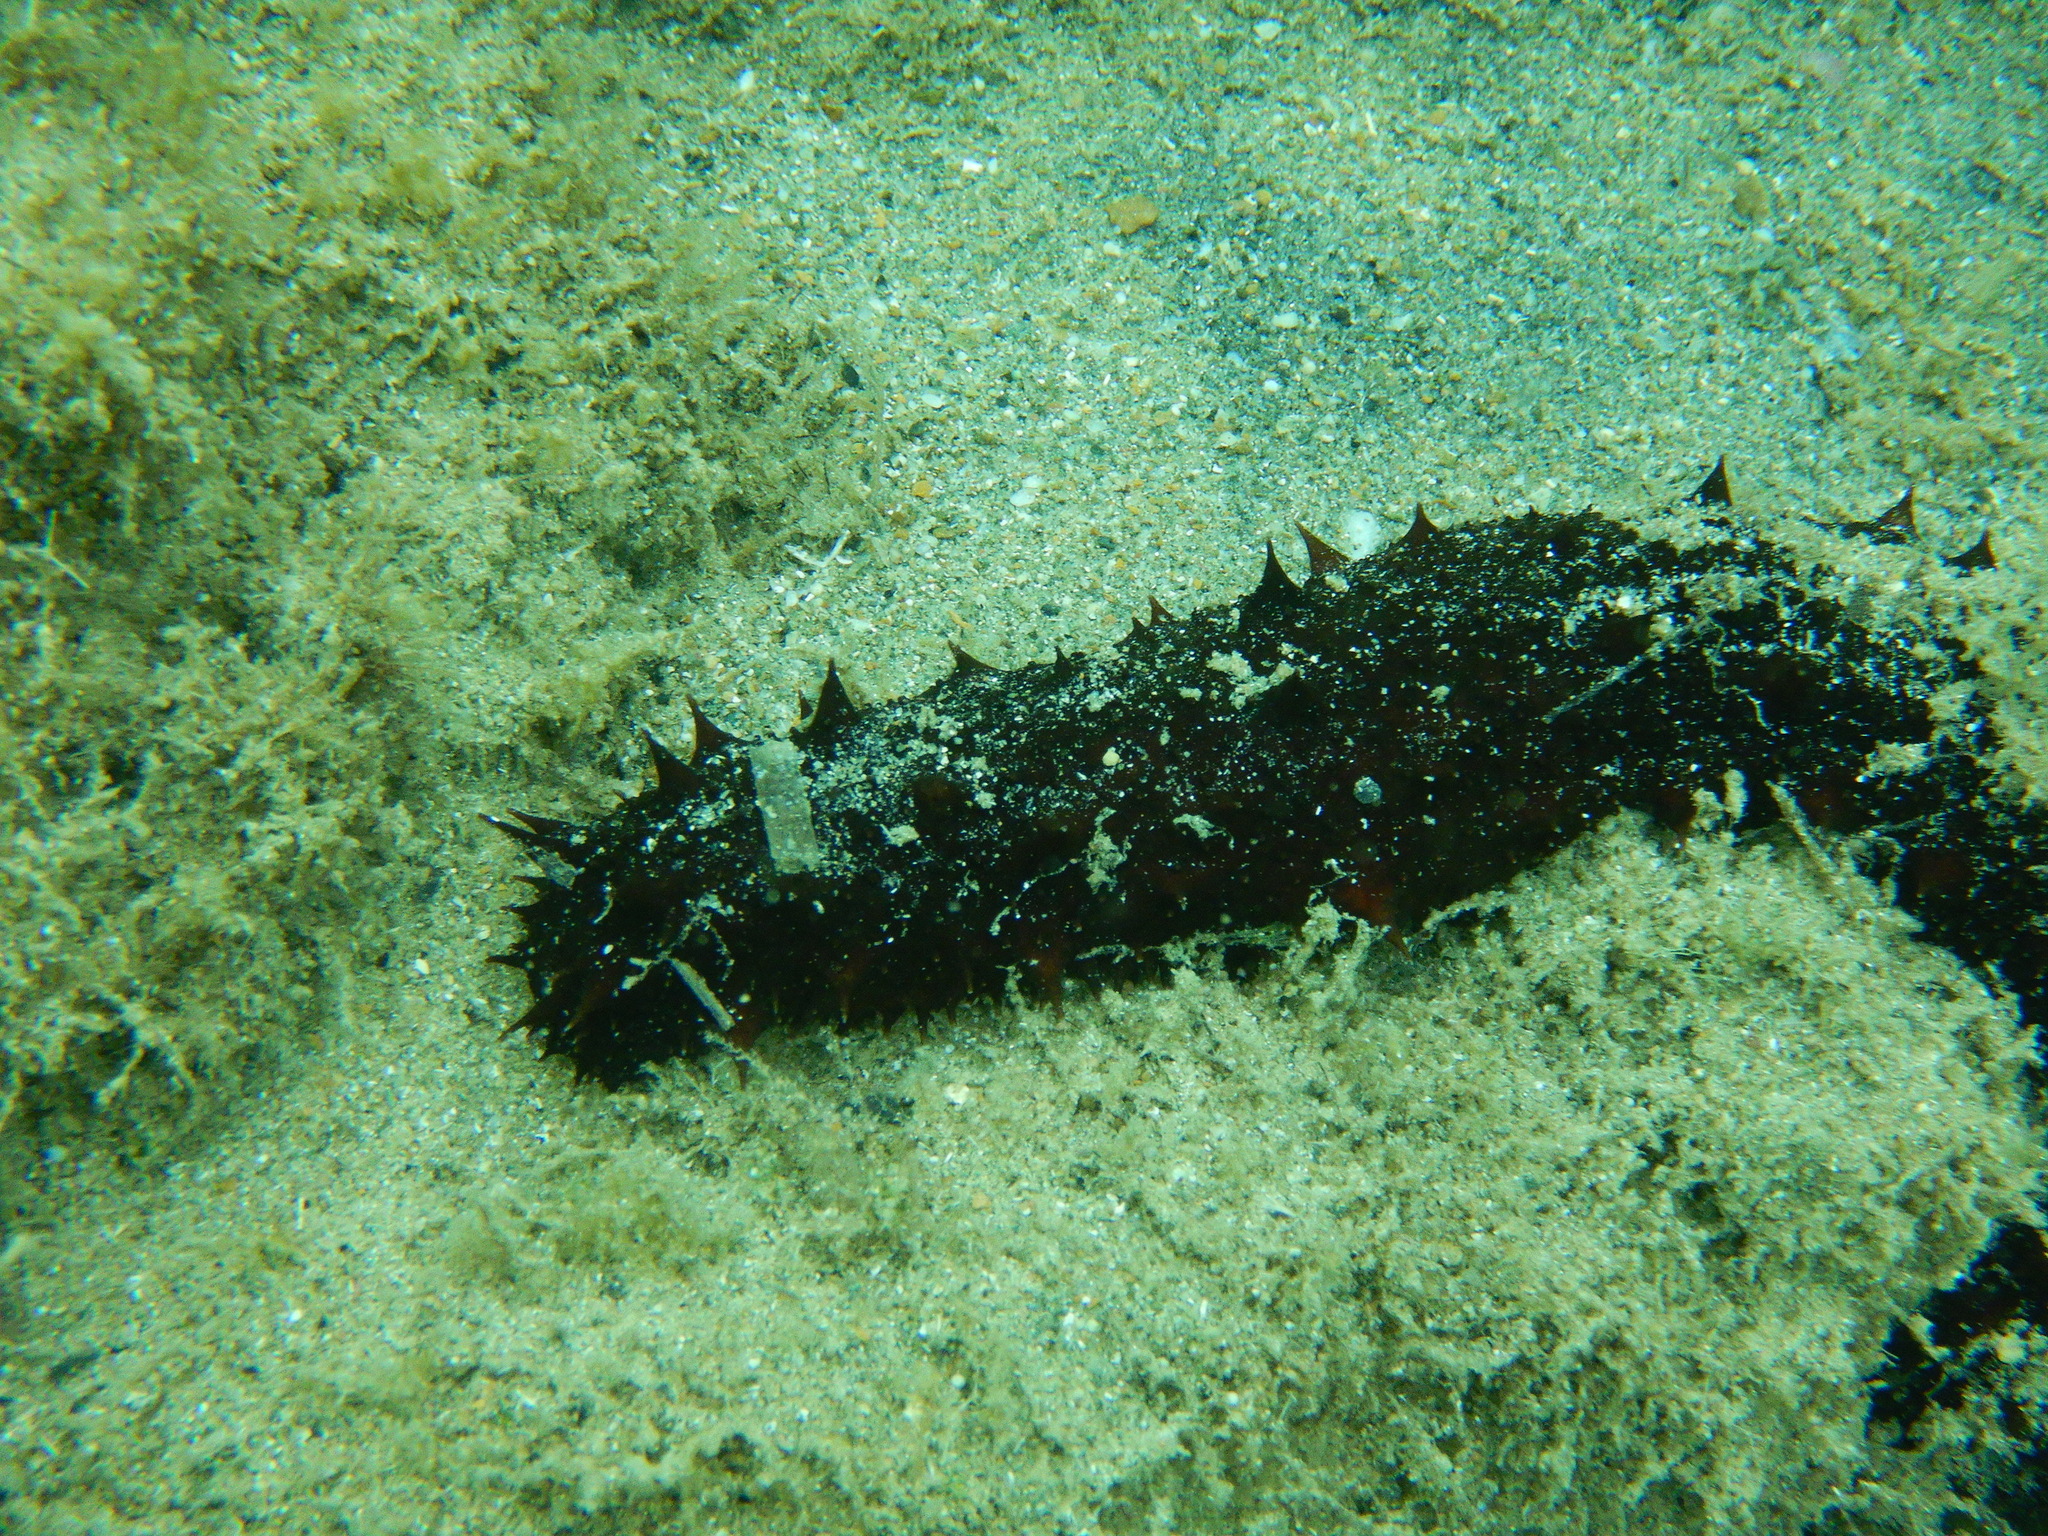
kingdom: Animalia
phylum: Echinodermata
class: Holothuroidea
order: Holothuriida
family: Holothuriidae
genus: Holothuria
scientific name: Holothuria tubulosa
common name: Cotton-spinner
